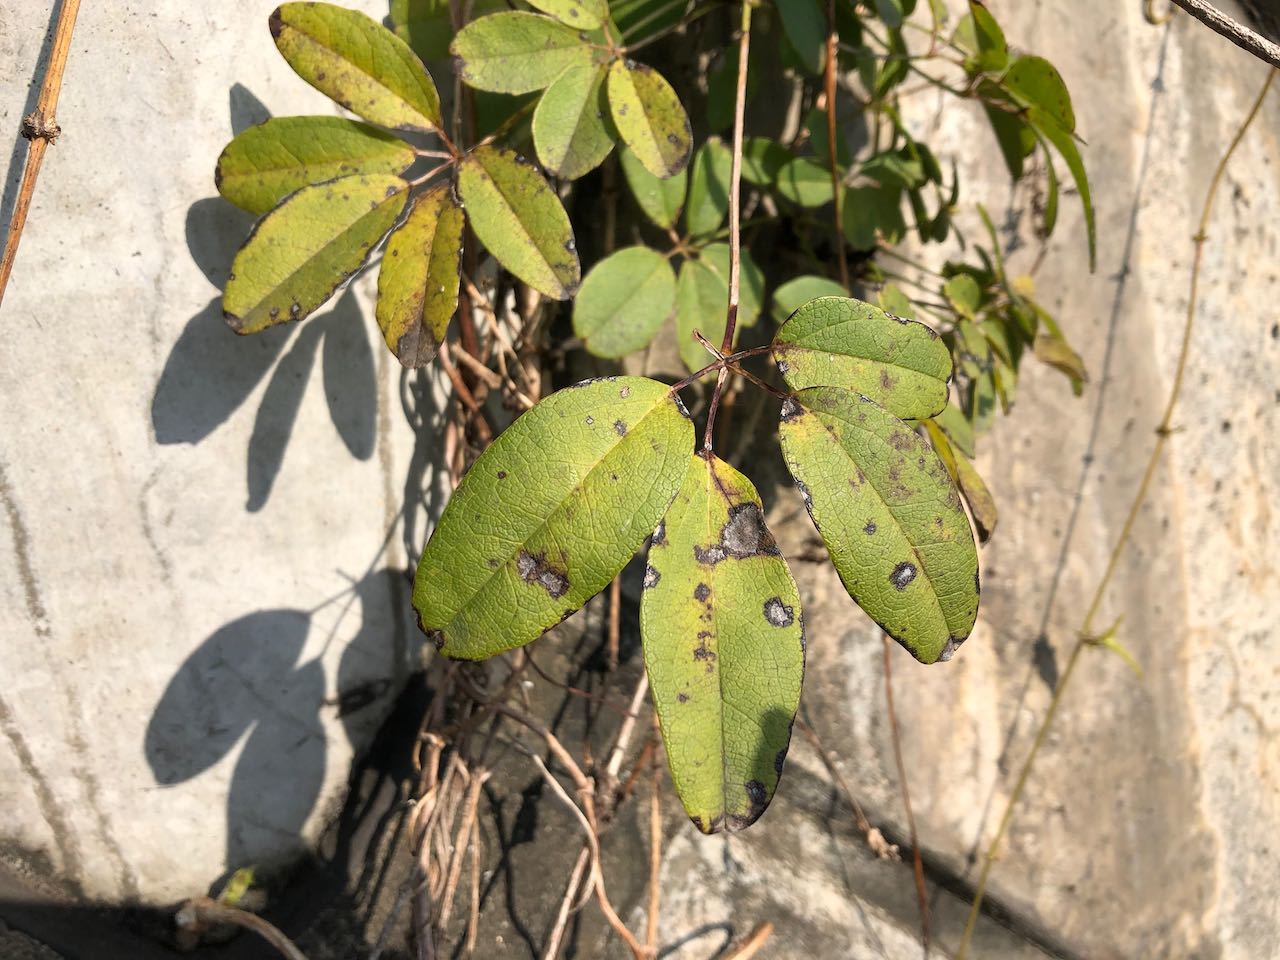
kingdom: Plantae
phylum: Tracheophyta
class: Magnoliopsida
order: Ranunculales
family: Lardizabalaceae
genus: Akebia
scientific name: Akebia quinata
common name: Five-leaf akebia
